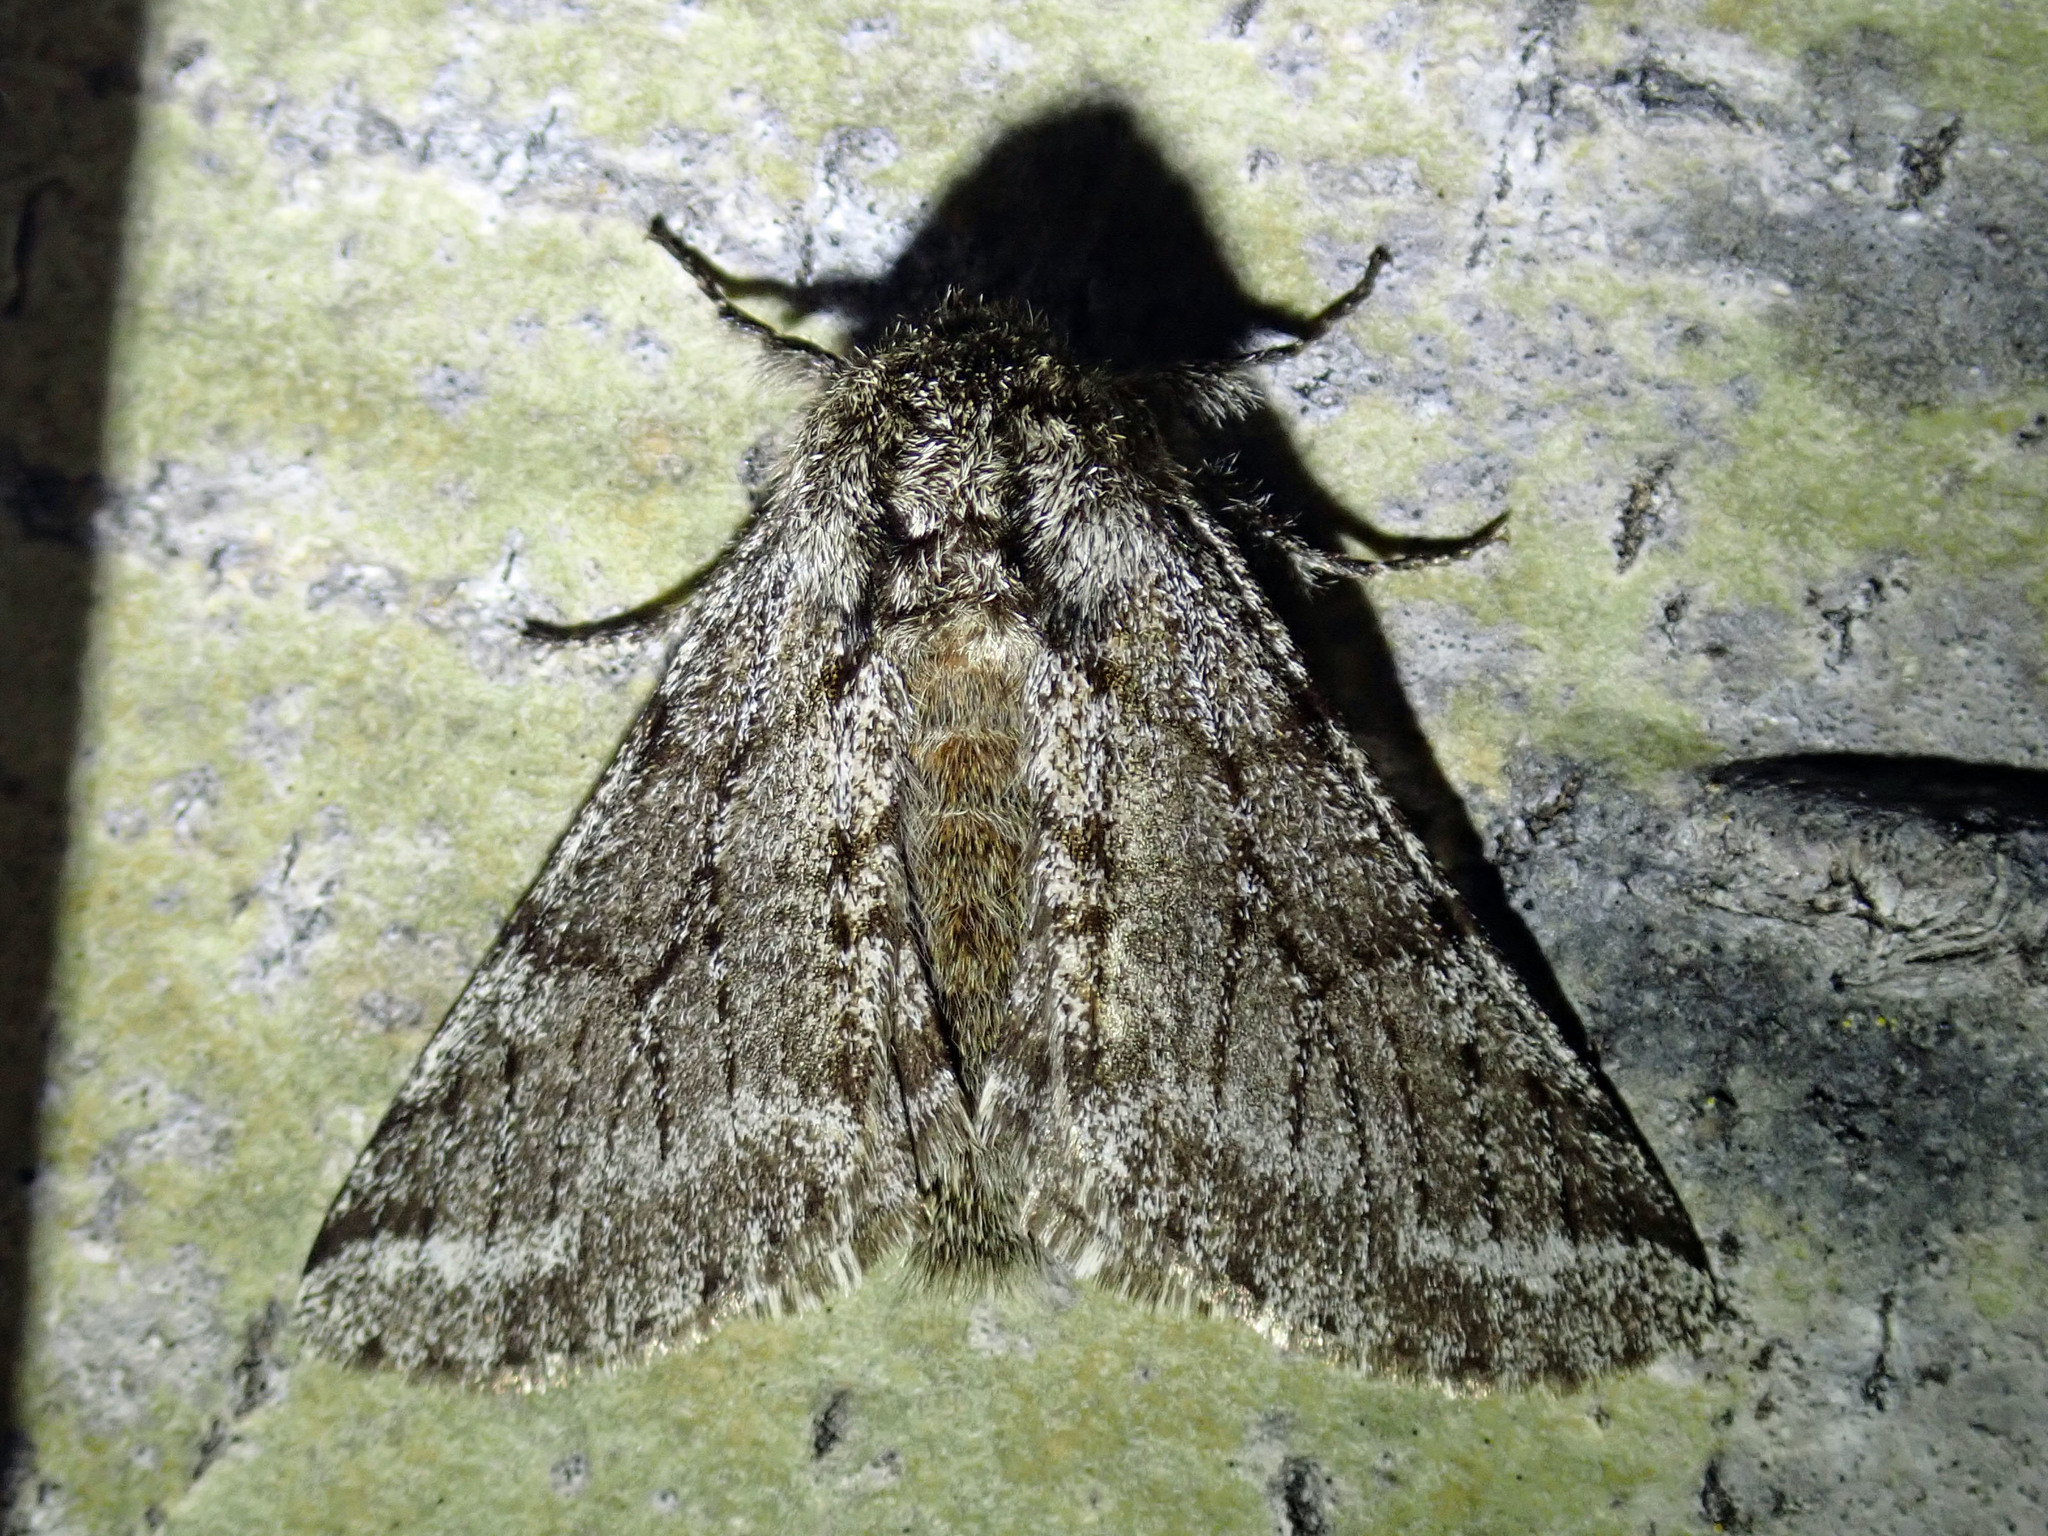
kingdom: Animalia
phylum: Arthropoda
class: Insecta
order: Lepidoptera
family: Geometridae
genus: Lycia
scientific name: Lycia ursaria
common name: Stout spanworm
